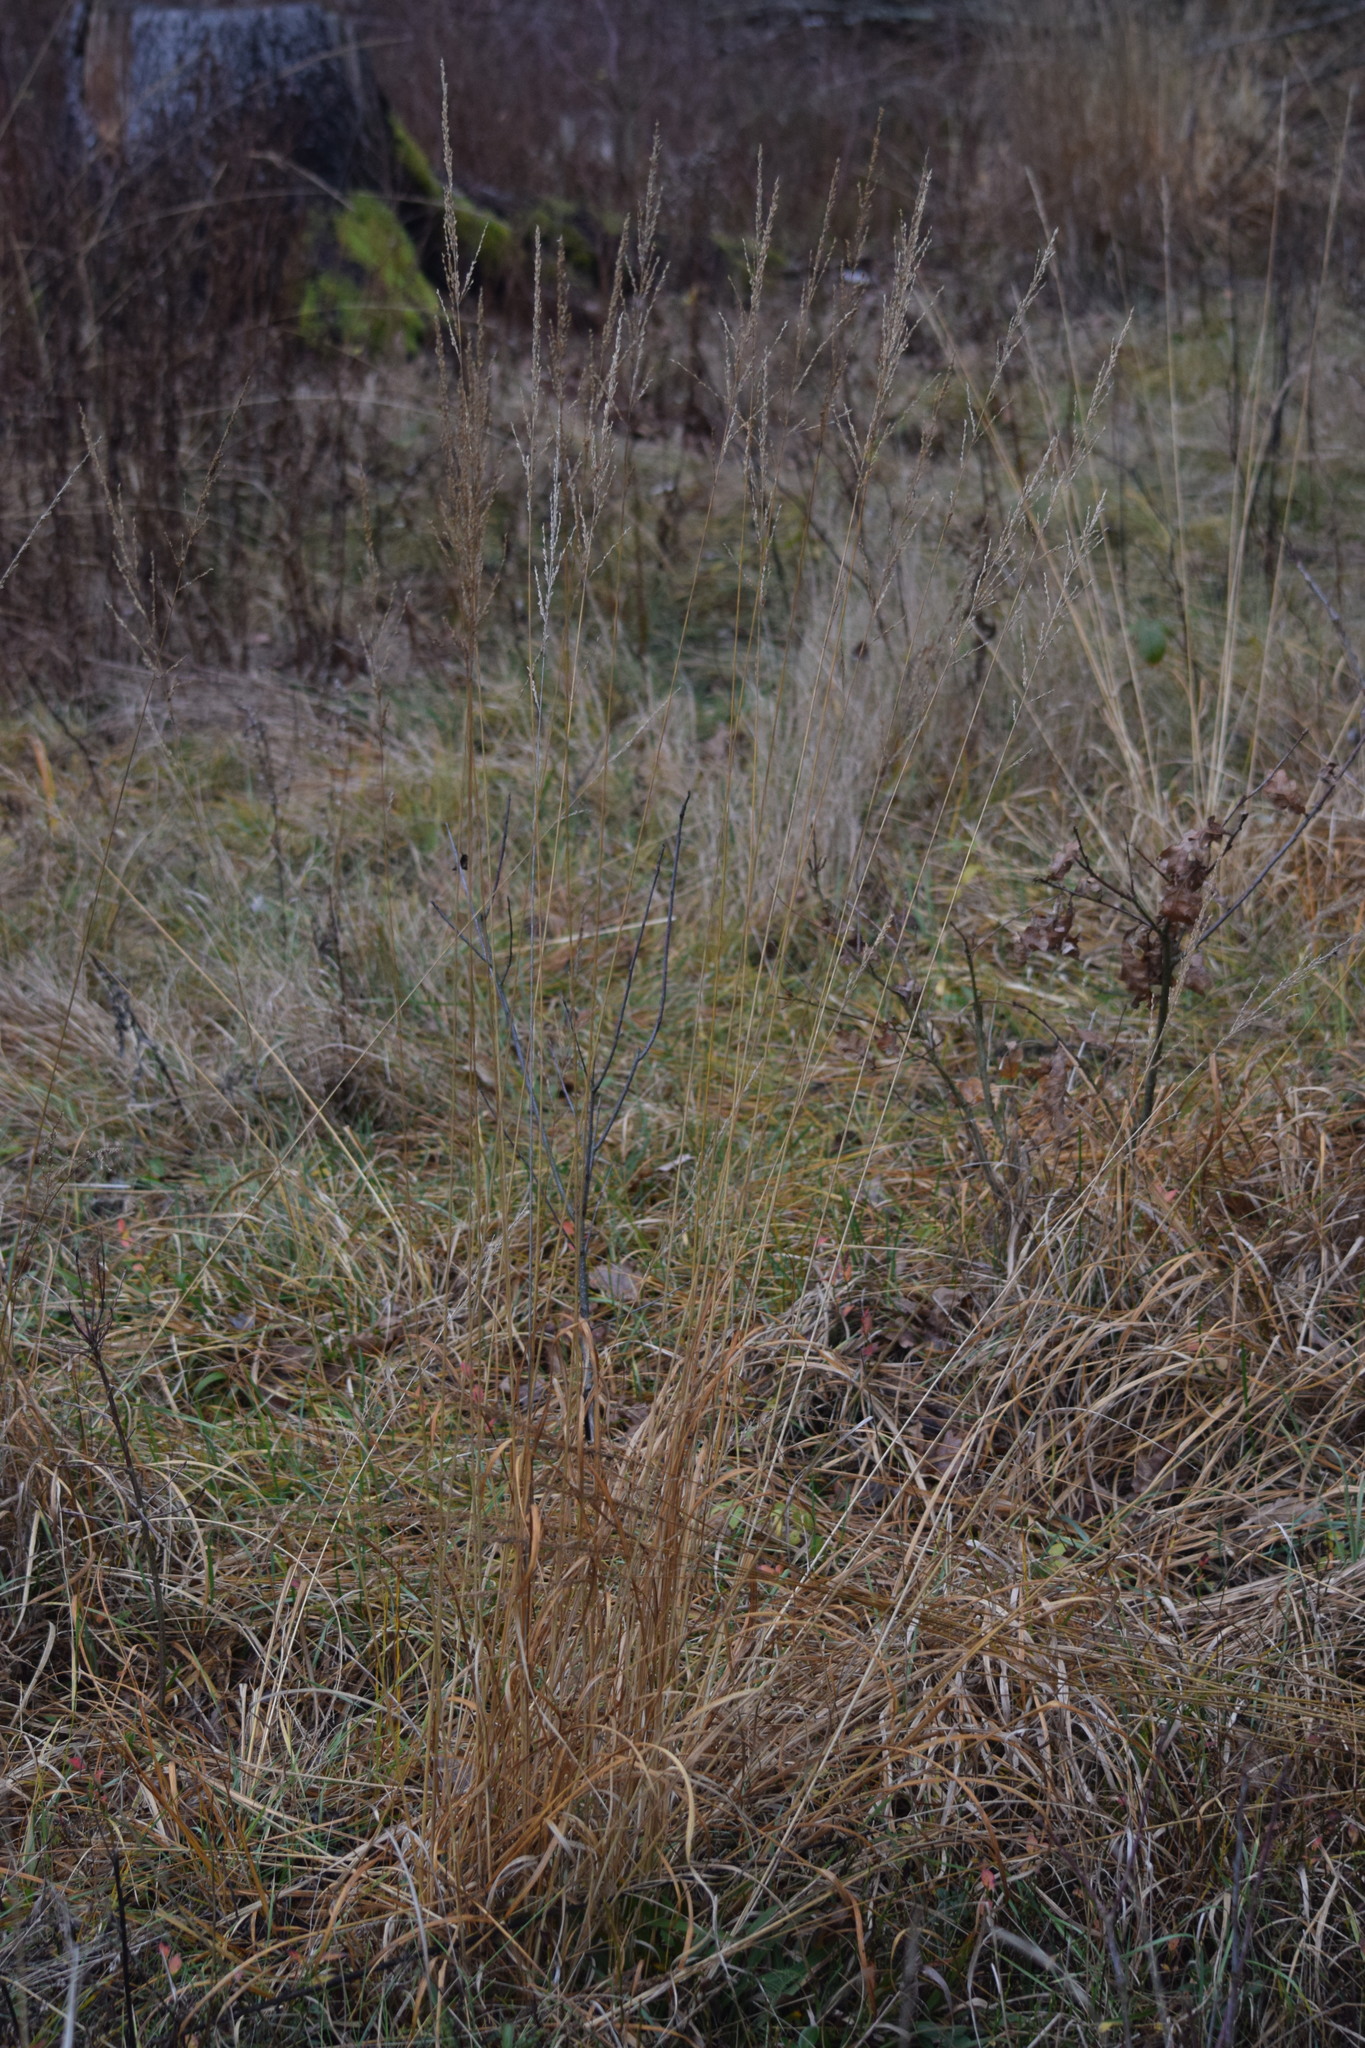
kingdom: Plantae
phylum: Tracheophyta
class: Liliopsida
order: Poales
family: Poaceae
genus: Molinia
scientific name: Molinia caerulea
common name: Purple moor-grass
